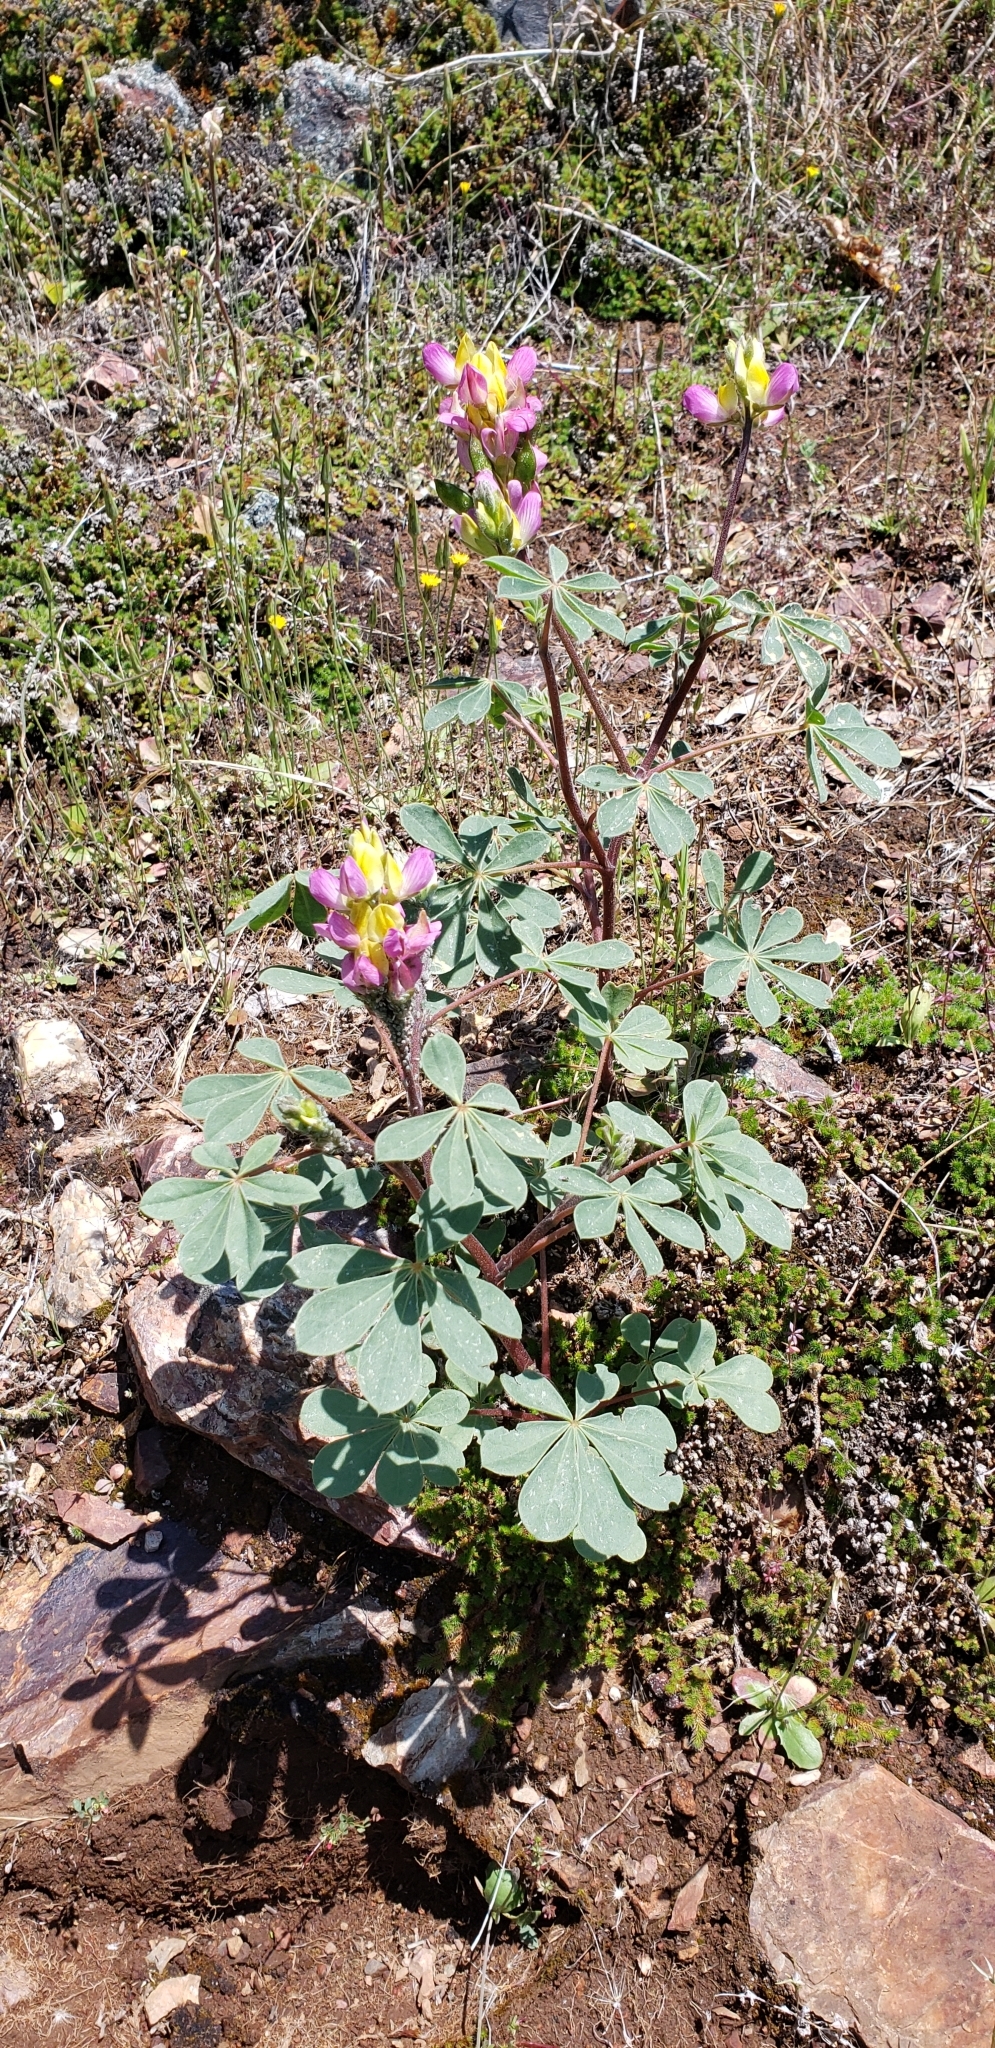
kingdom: Plantae
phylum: Tracheophyta
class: Magnoliopsida
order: Fabales
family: Fabaceae
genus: Lupinus
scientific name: Lupinus stiversii
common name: Harlequin lupine
